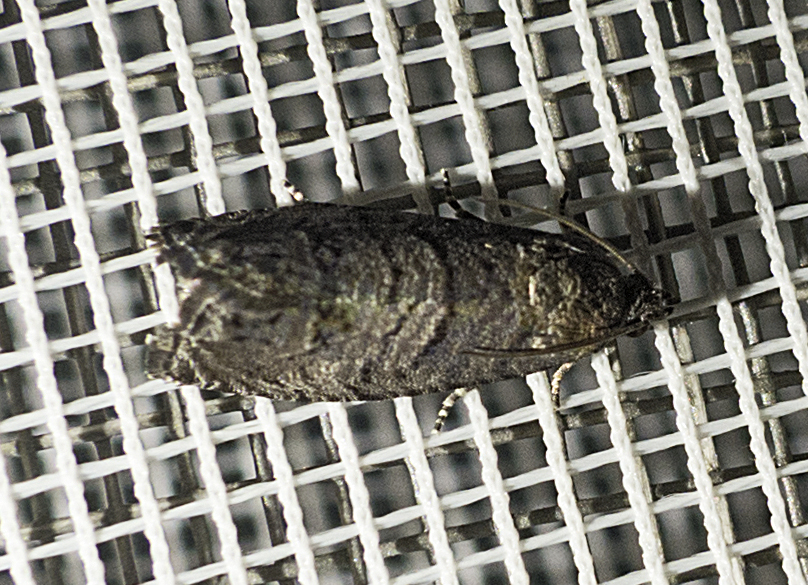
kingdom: Animalia
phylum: Arthropoda
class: Insecta
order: Lepidoptera
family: Tortricidae
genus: Cydia
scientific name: Cydia pyrivora
